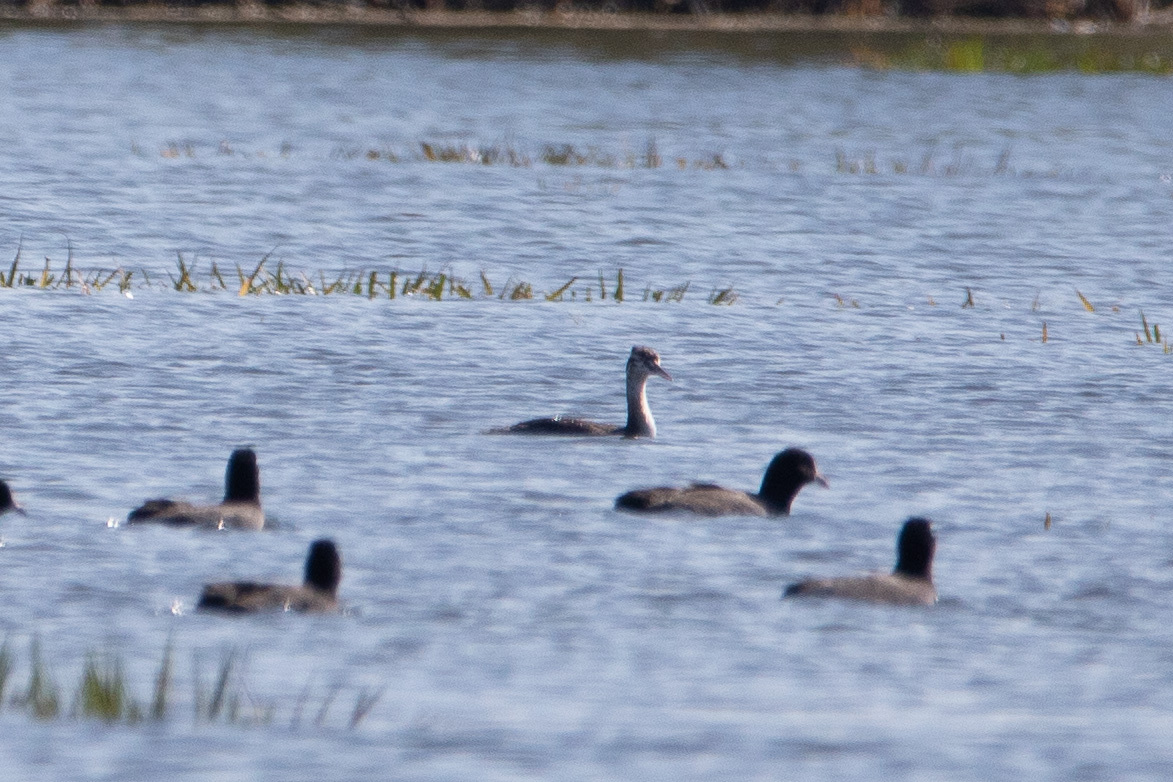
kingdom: Animalia
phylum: Chordata
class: Aves
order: Podicipediformes
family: Podicipedidae
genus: Podiceps
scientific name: Podiceps cristatus
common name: Great crested grebe
